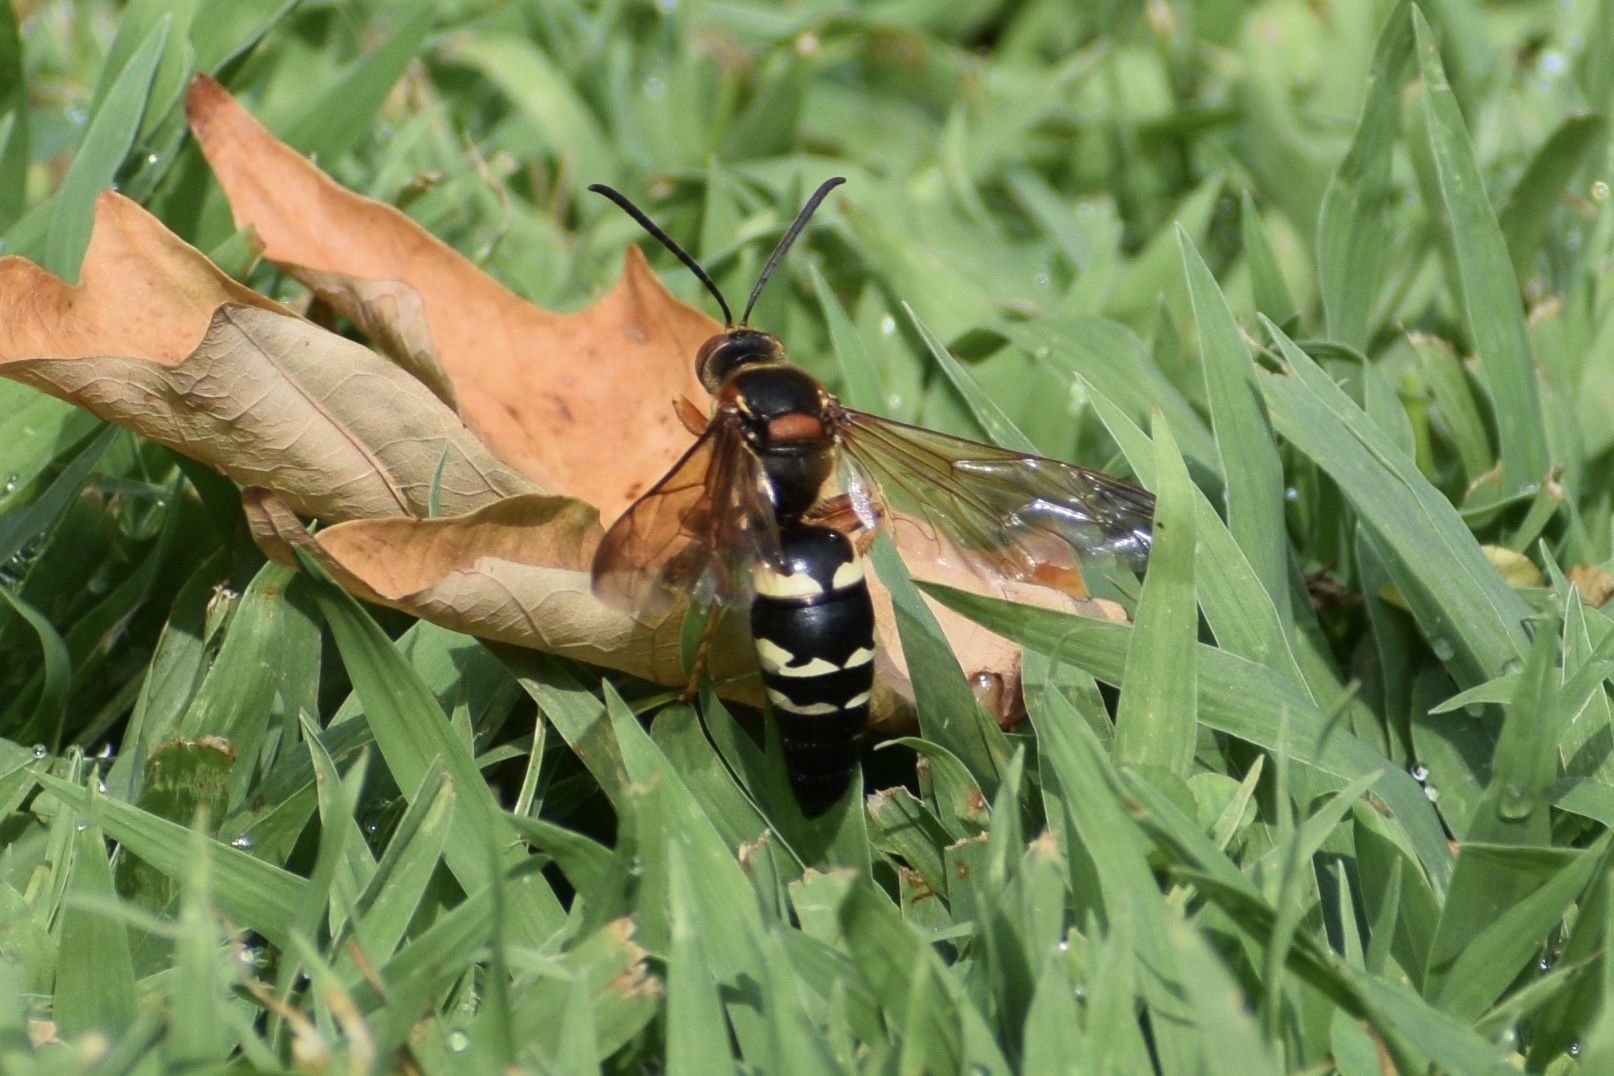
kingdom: Animalia
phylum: Arthropoda
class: Insecta
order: Hymenoptera
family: Crabronidae
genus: Sphecius
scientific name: Sphecius speciosus
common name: Cicada killer
